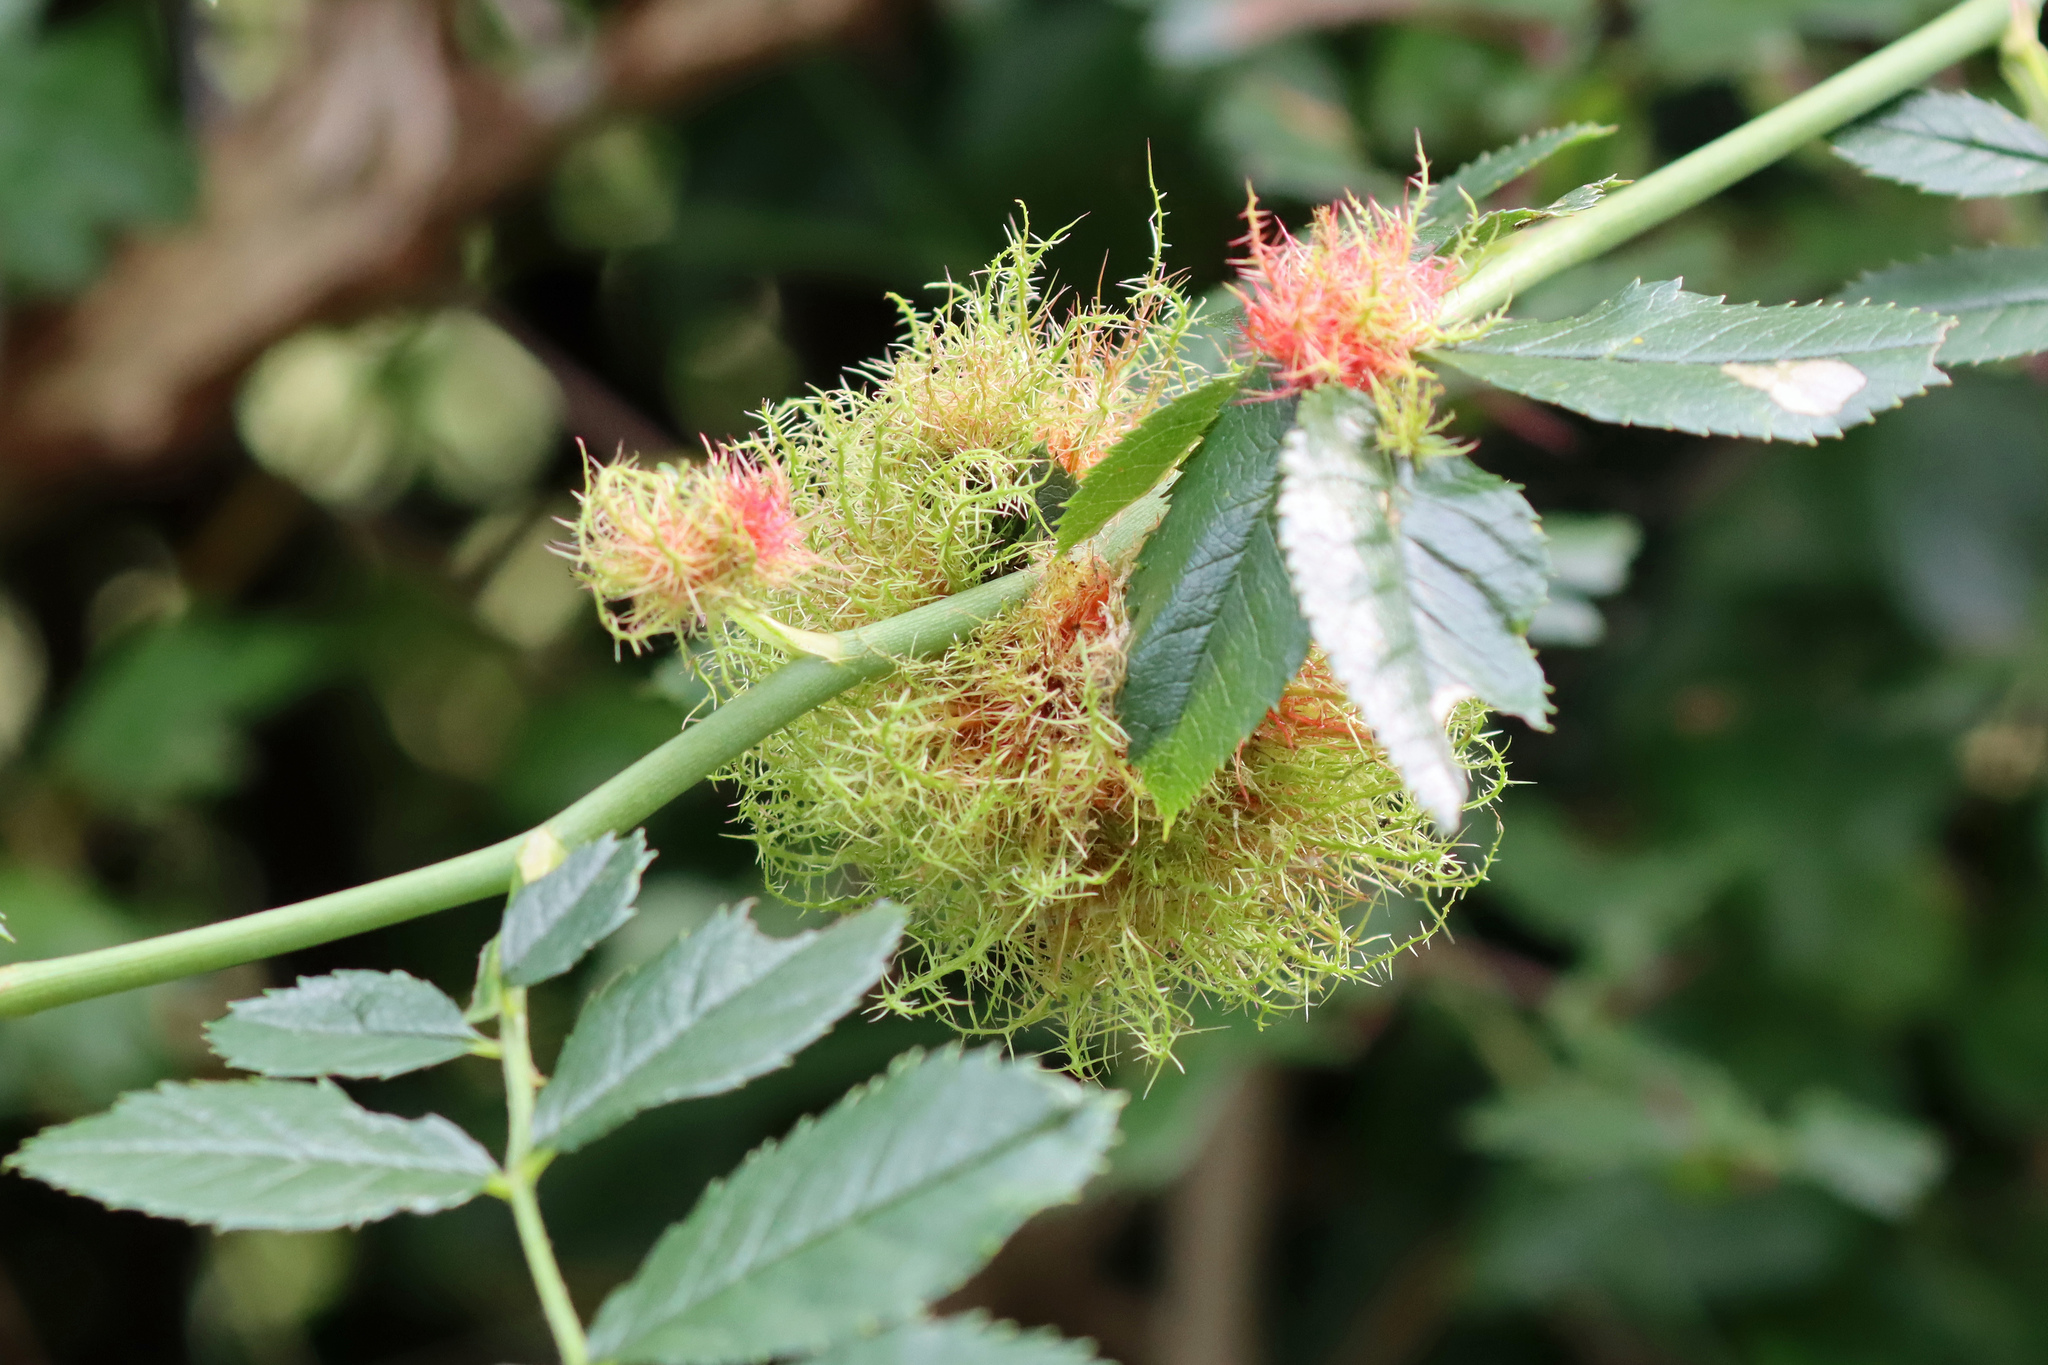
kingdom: Animalia
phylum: Arthropoda
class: Insecta
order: Hymenoptera
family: Cynipidae
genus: Diplolepis
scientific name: Diplolepis rosae
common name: Bedeguar gall
